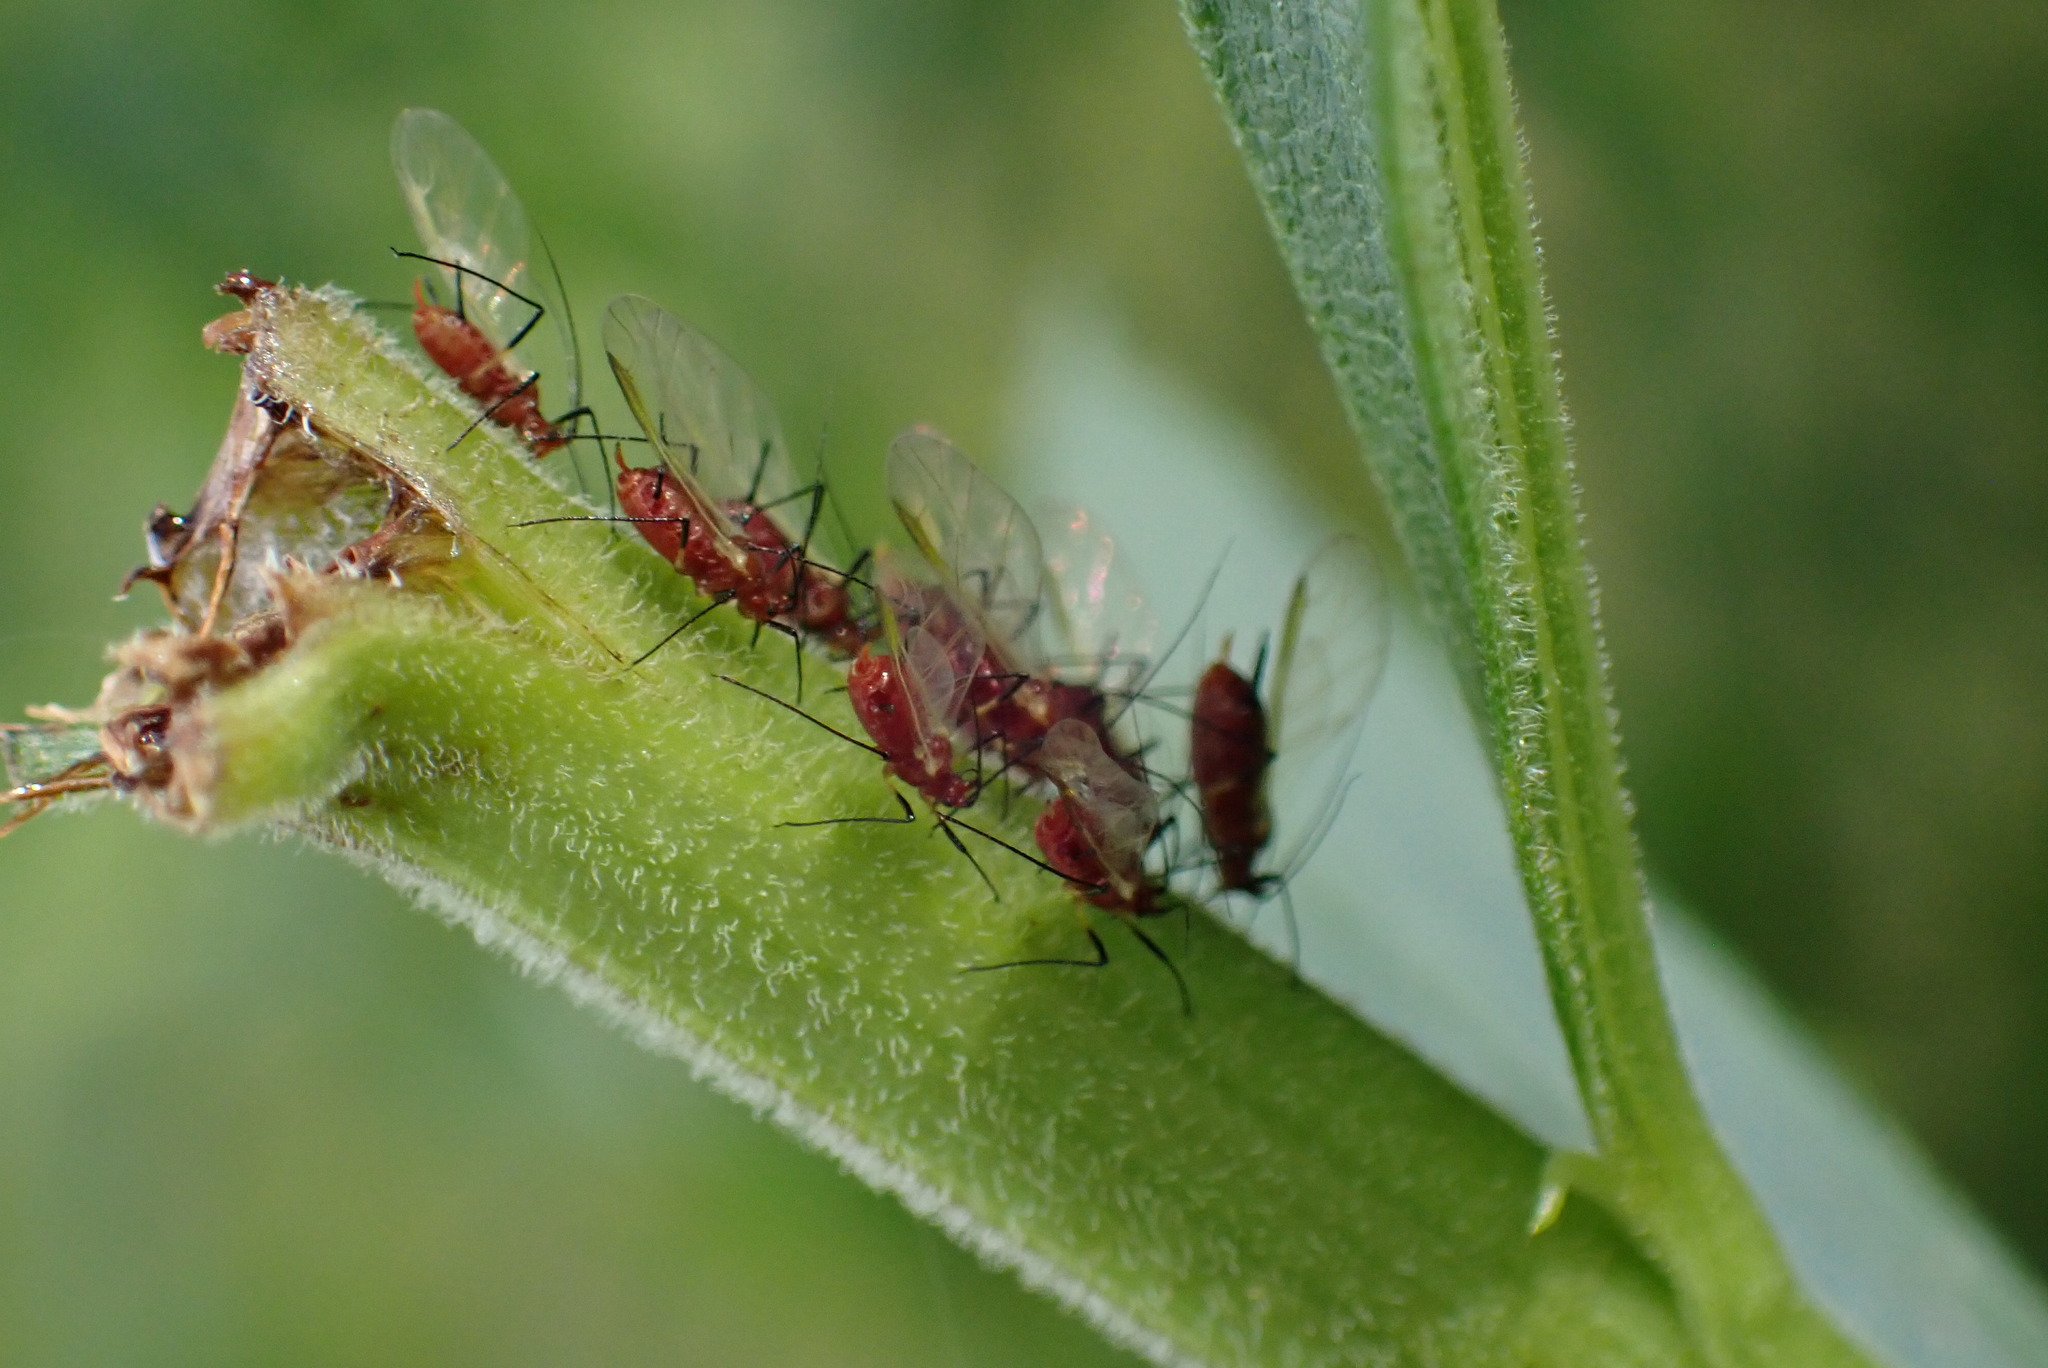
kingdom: Animalia
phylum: Arthropoda
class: Insecta
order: Hemiptera
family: Aphididae
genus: Uroleucon
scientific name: Uroleucon
